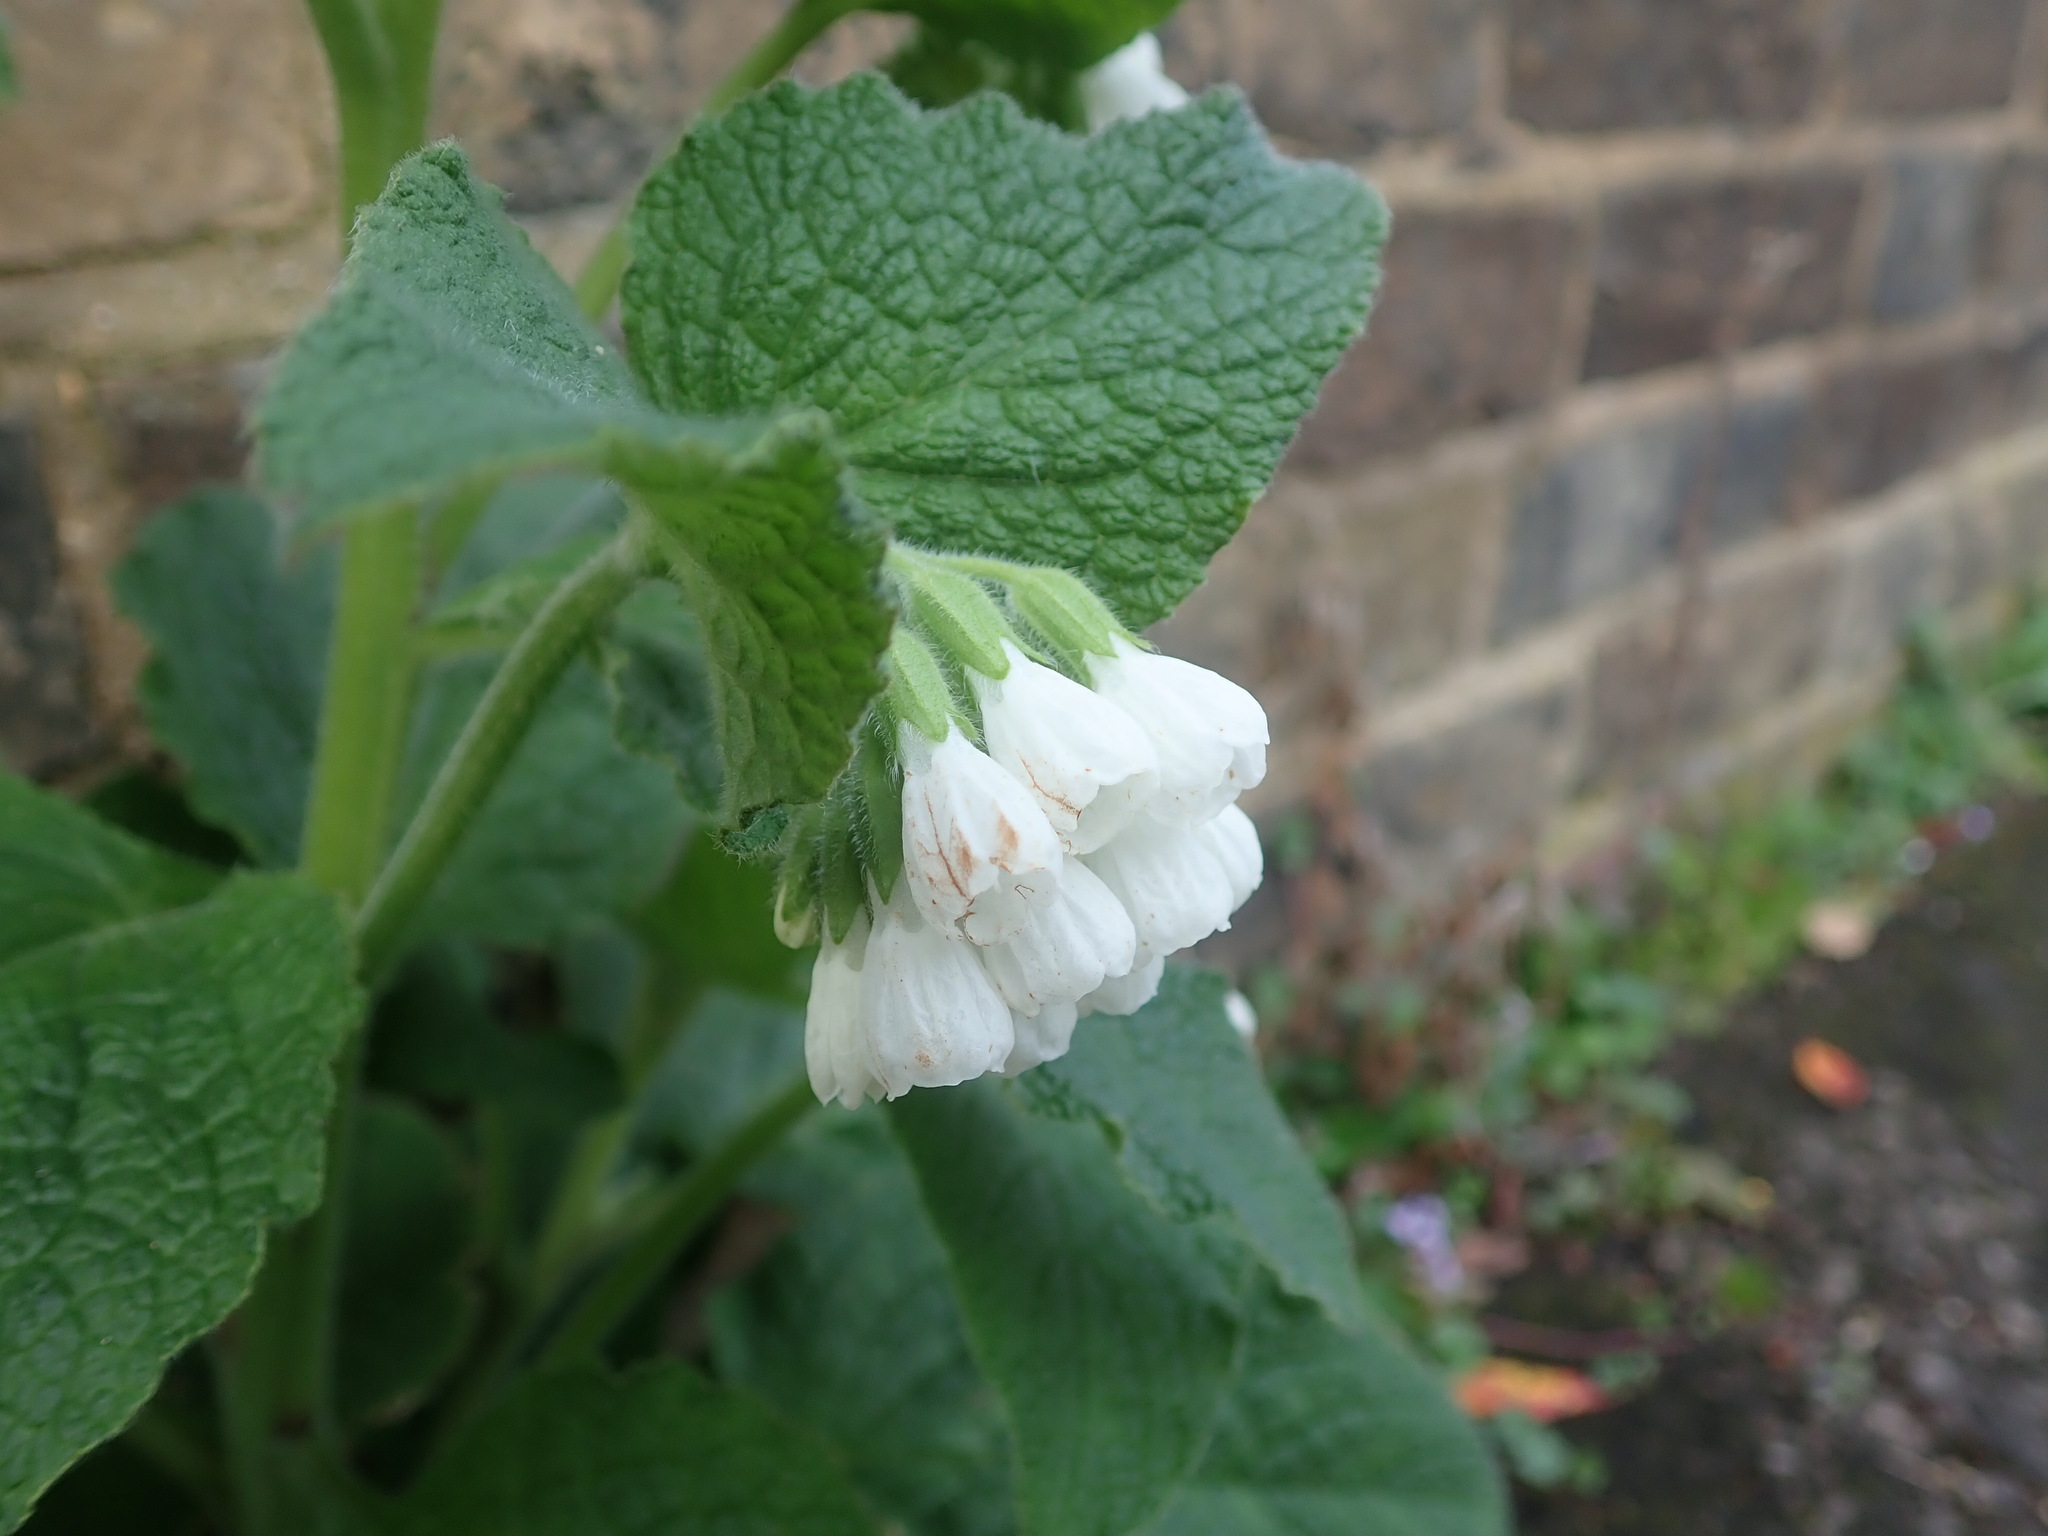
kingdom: Plantae
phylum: Tracheophyta
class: Magnoliopsida
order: Boraginales
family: Boraginaceae
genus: Symphytum
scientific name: Symphytum orientale
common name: White comfrey
